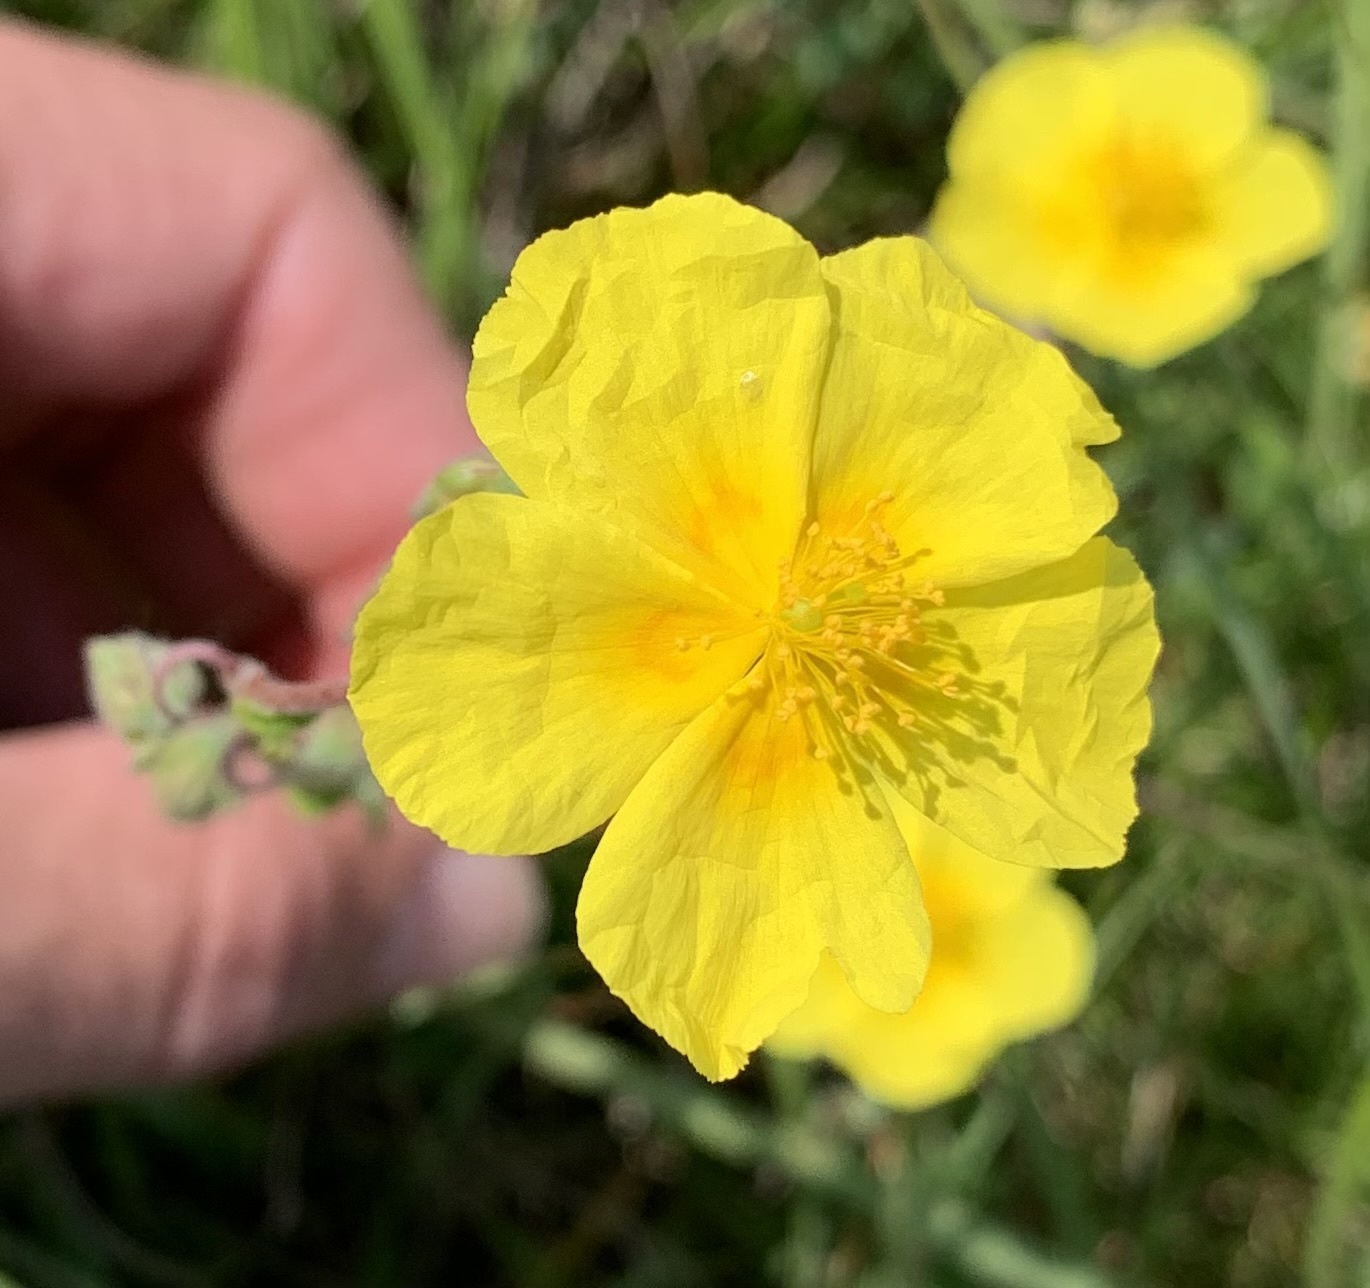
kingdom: Plantae
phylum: Tracheophyta
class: Magnoliopsida
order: Malvales
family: Cistaceae
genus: Helianthemum
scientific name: Helianthemum nummularium
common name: Common rock-rose
